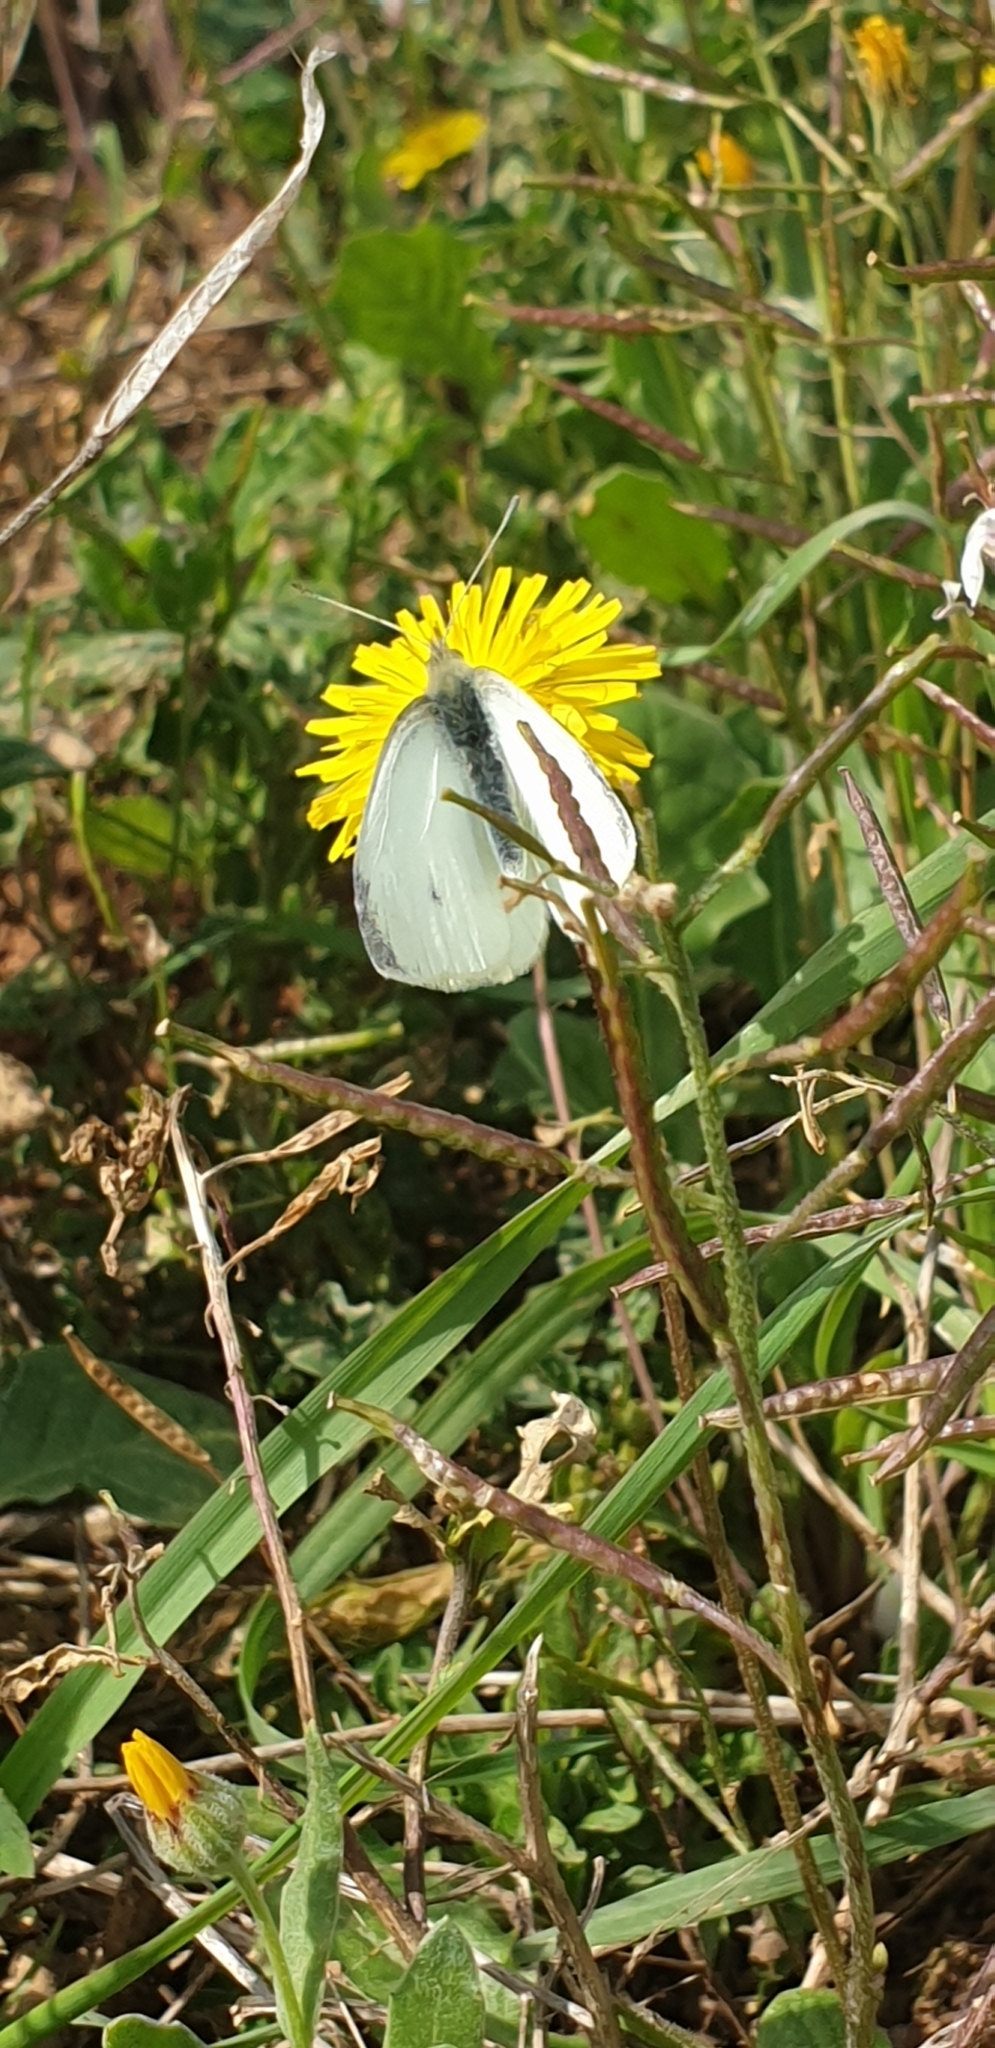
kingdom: Animalia
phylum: Arthropoda
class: Insecta
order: Lepidoptera
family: Pieridae
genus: Pieris
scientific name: Pieris rapae
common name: Small white
